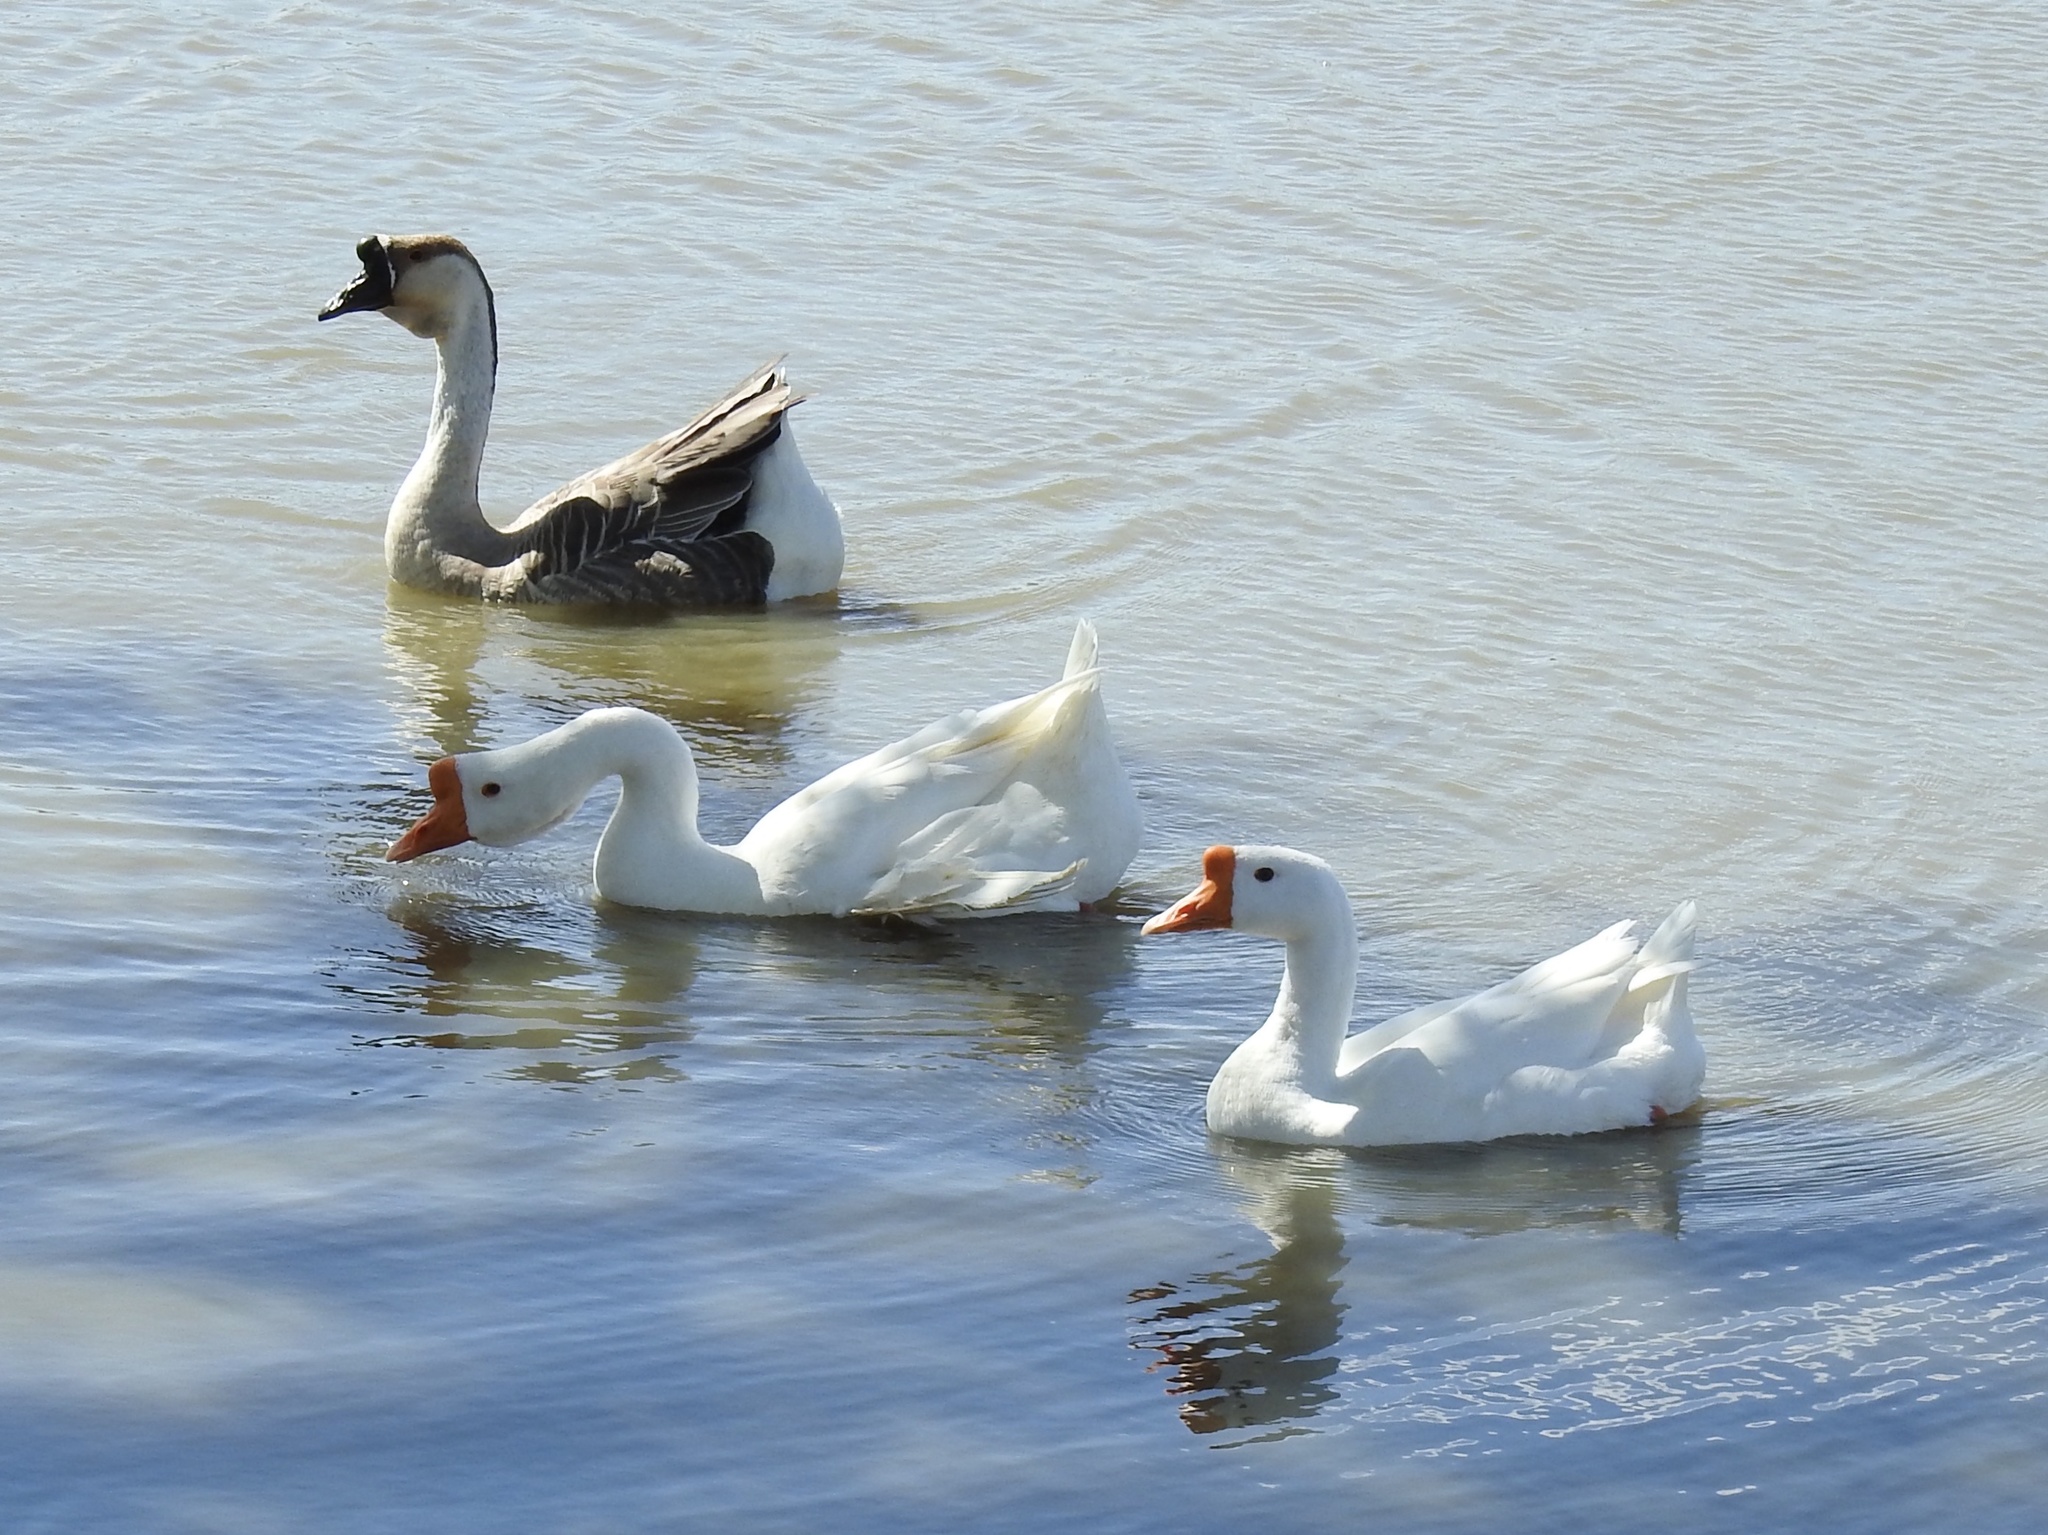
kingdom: Animalia
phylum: Chordata
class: Aves
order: Anseriformes
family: Anatidae
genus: Anser
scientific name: Anser cygnoides
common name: Swan goose
